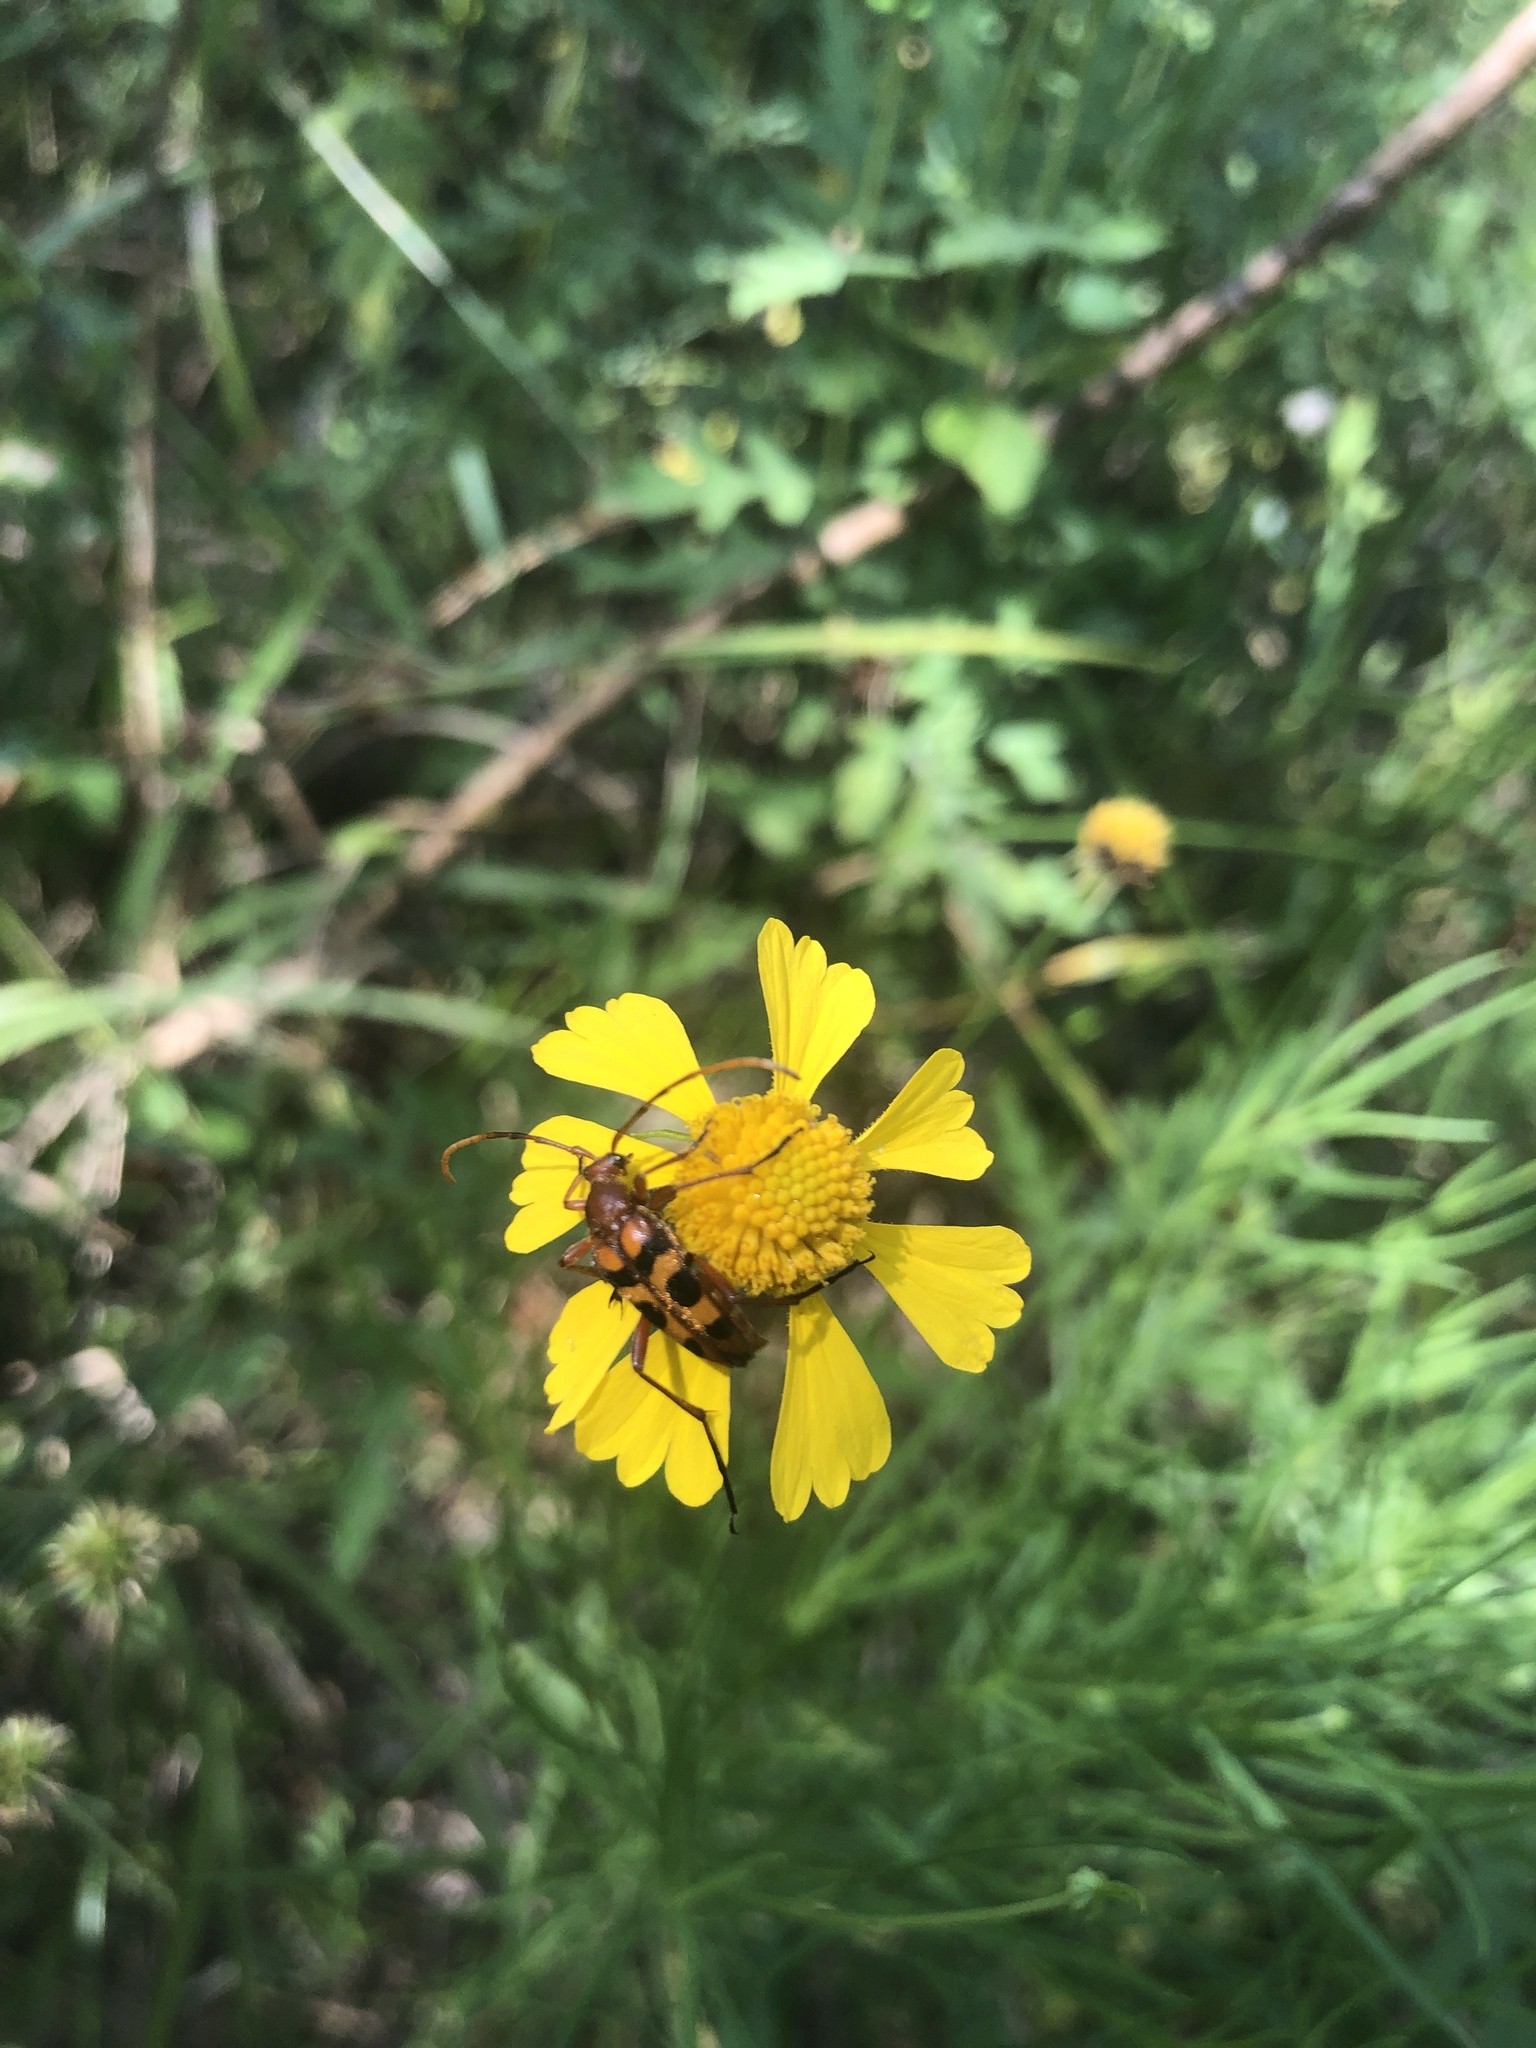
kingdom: Animalia
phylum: Arthropoda
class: Insecta
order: Coleoptera
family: Cerambycidae
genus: Strangalia
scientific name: Strangalia sexnotata
